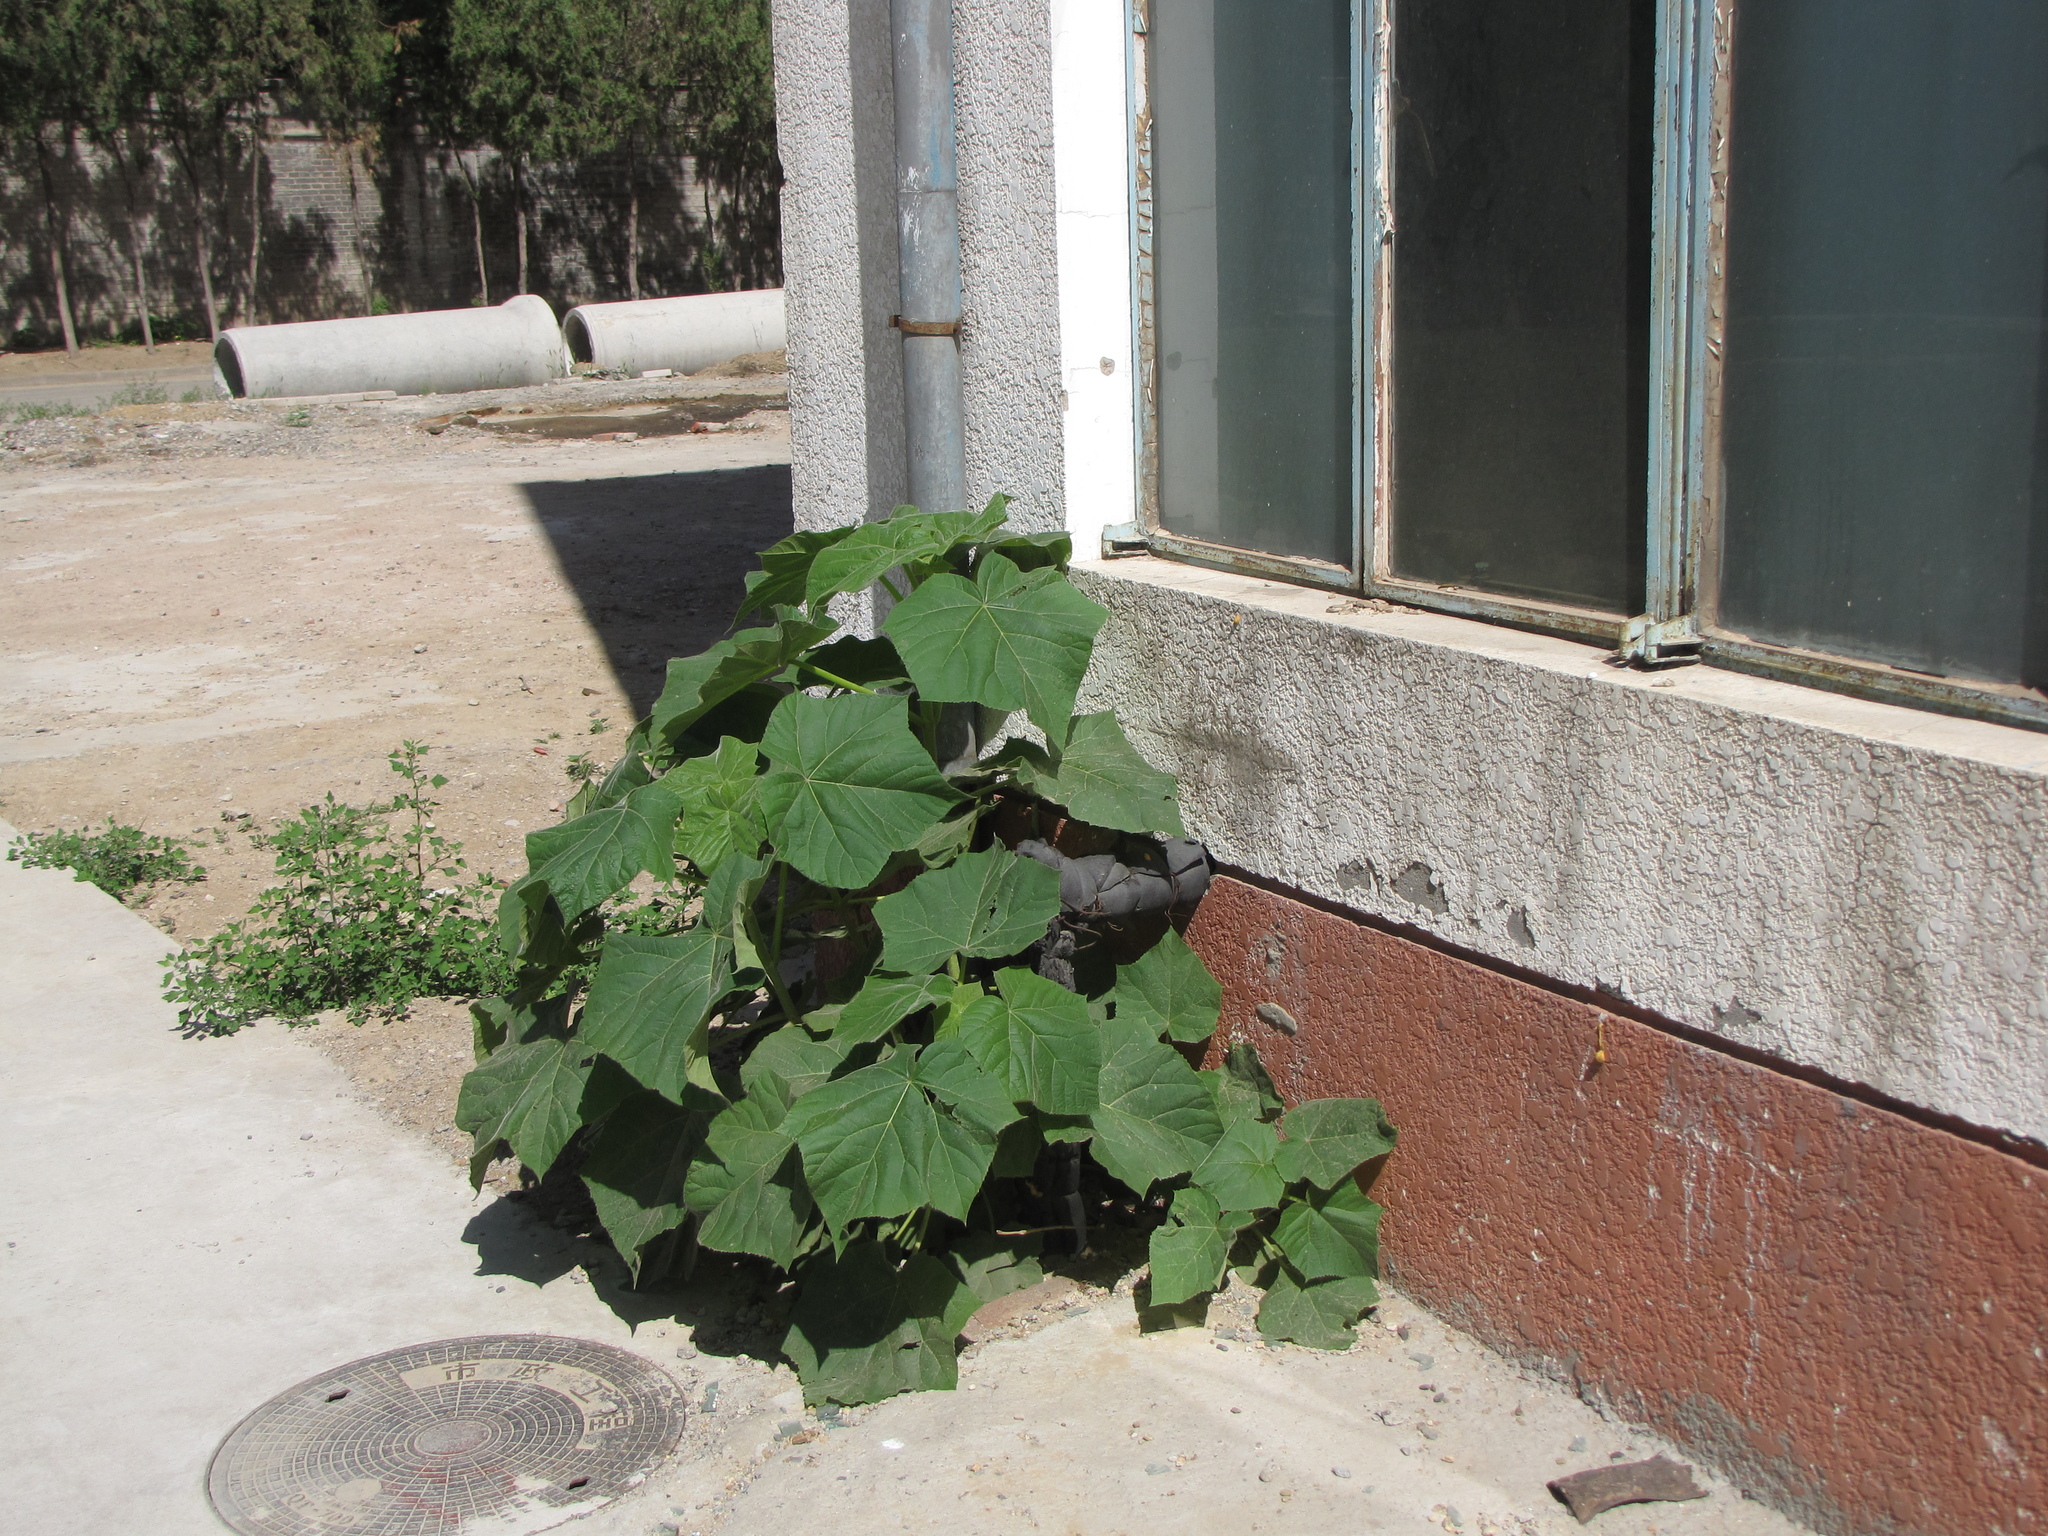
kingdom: Plantae
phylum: Tracheophyta
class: Magnoliopsida
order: Lamiales
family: Paulowniaceae
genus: Paulownia
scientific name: Paulownia tomentosa
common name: Foxglove-tree
